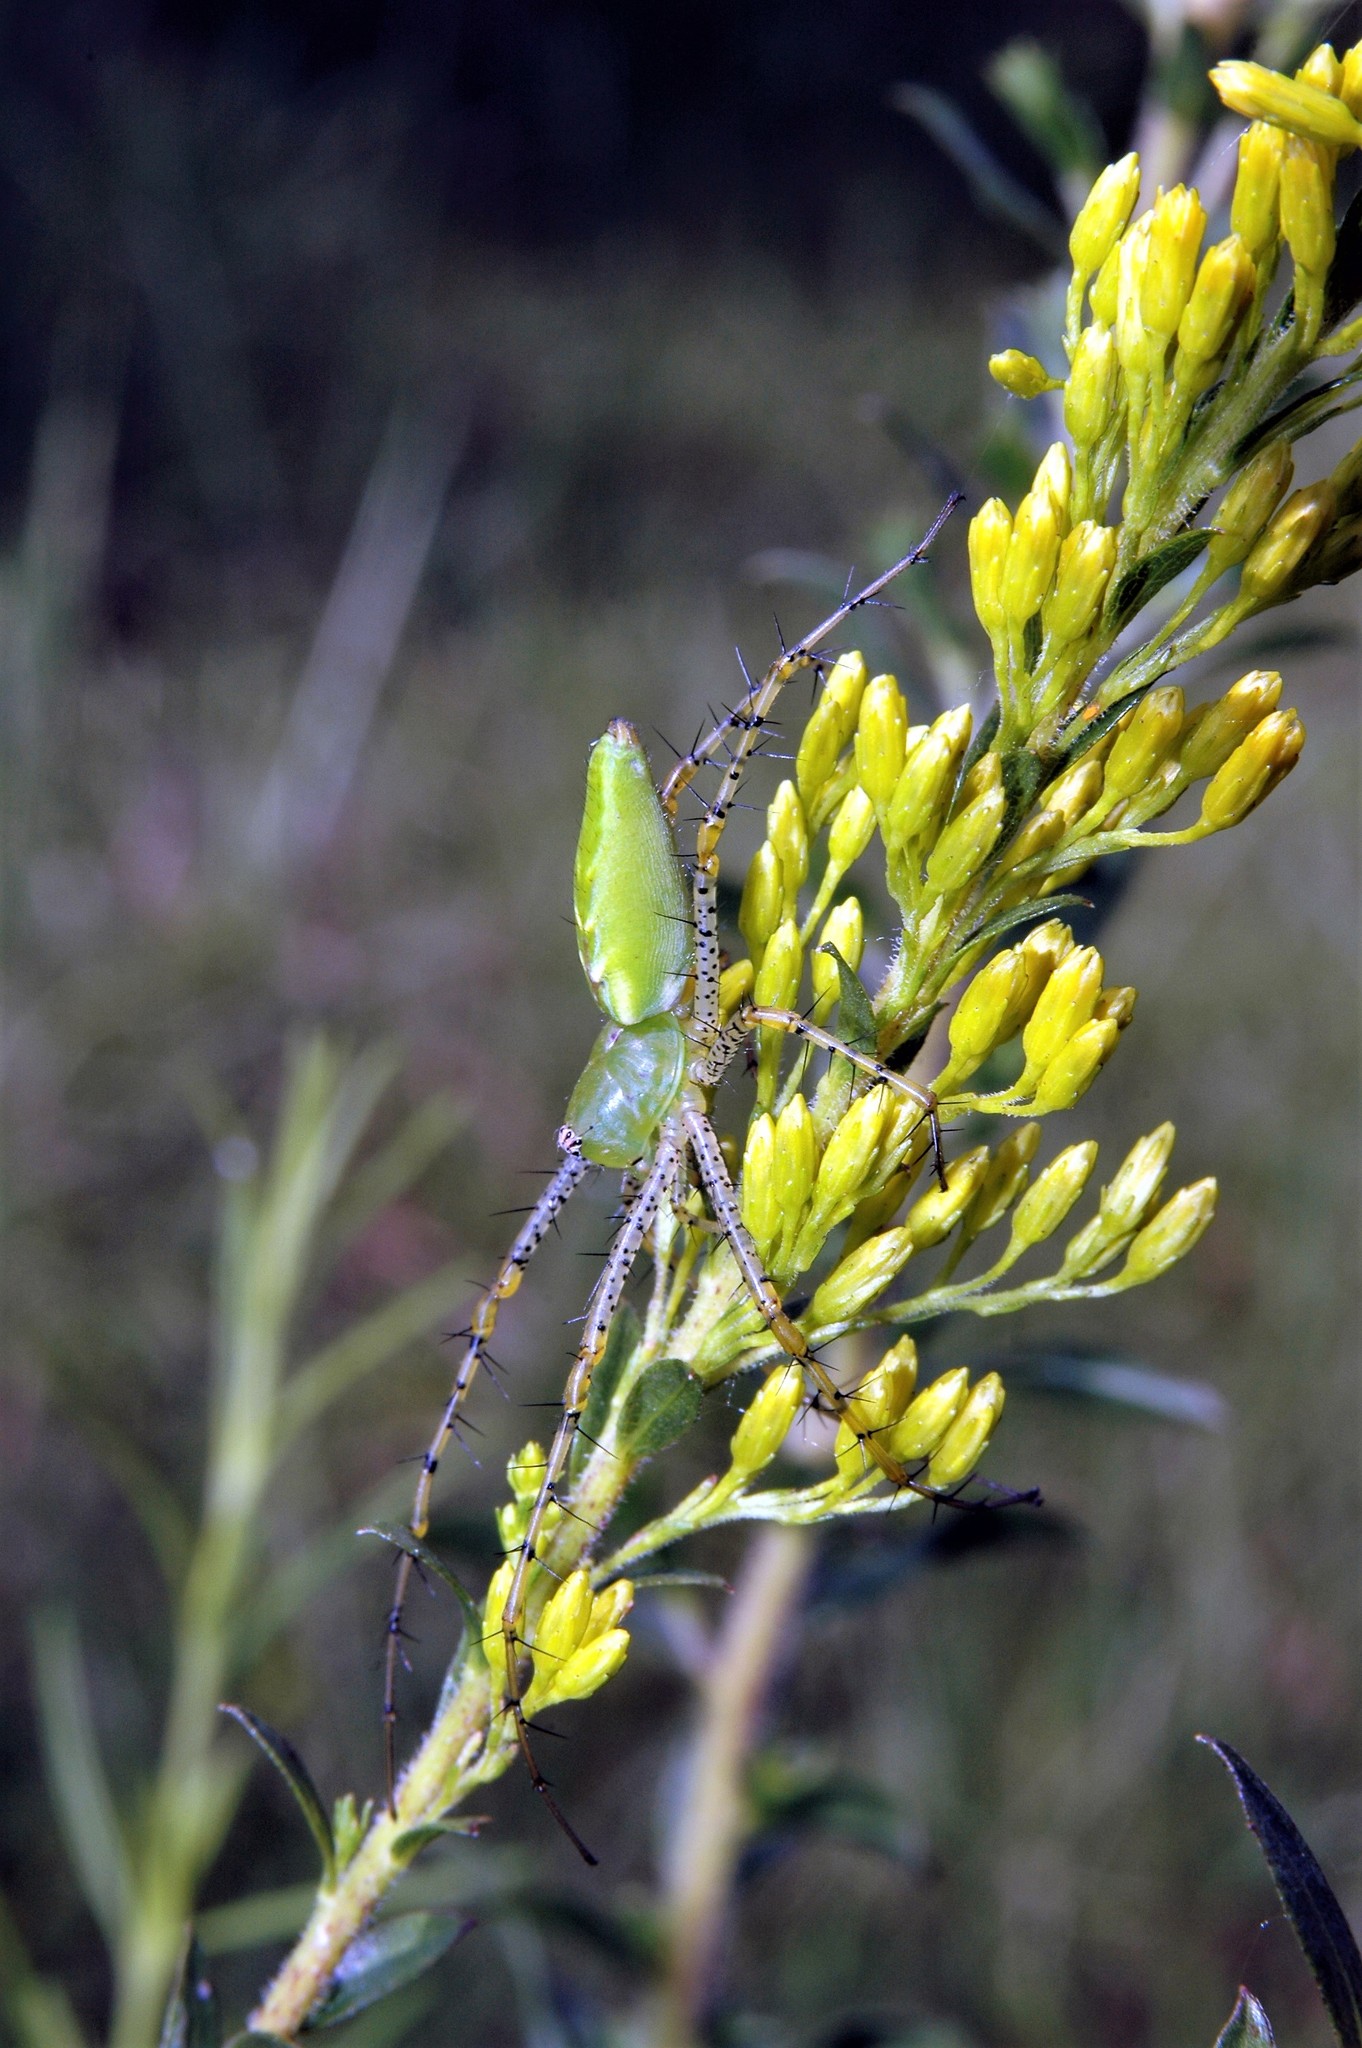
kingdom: Animalia
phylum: Arthropoda
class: Arachnida
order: Araneae
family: Oxyopidae
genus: Peucetia
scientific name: Peucetia viridans
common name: Lynx spiders
